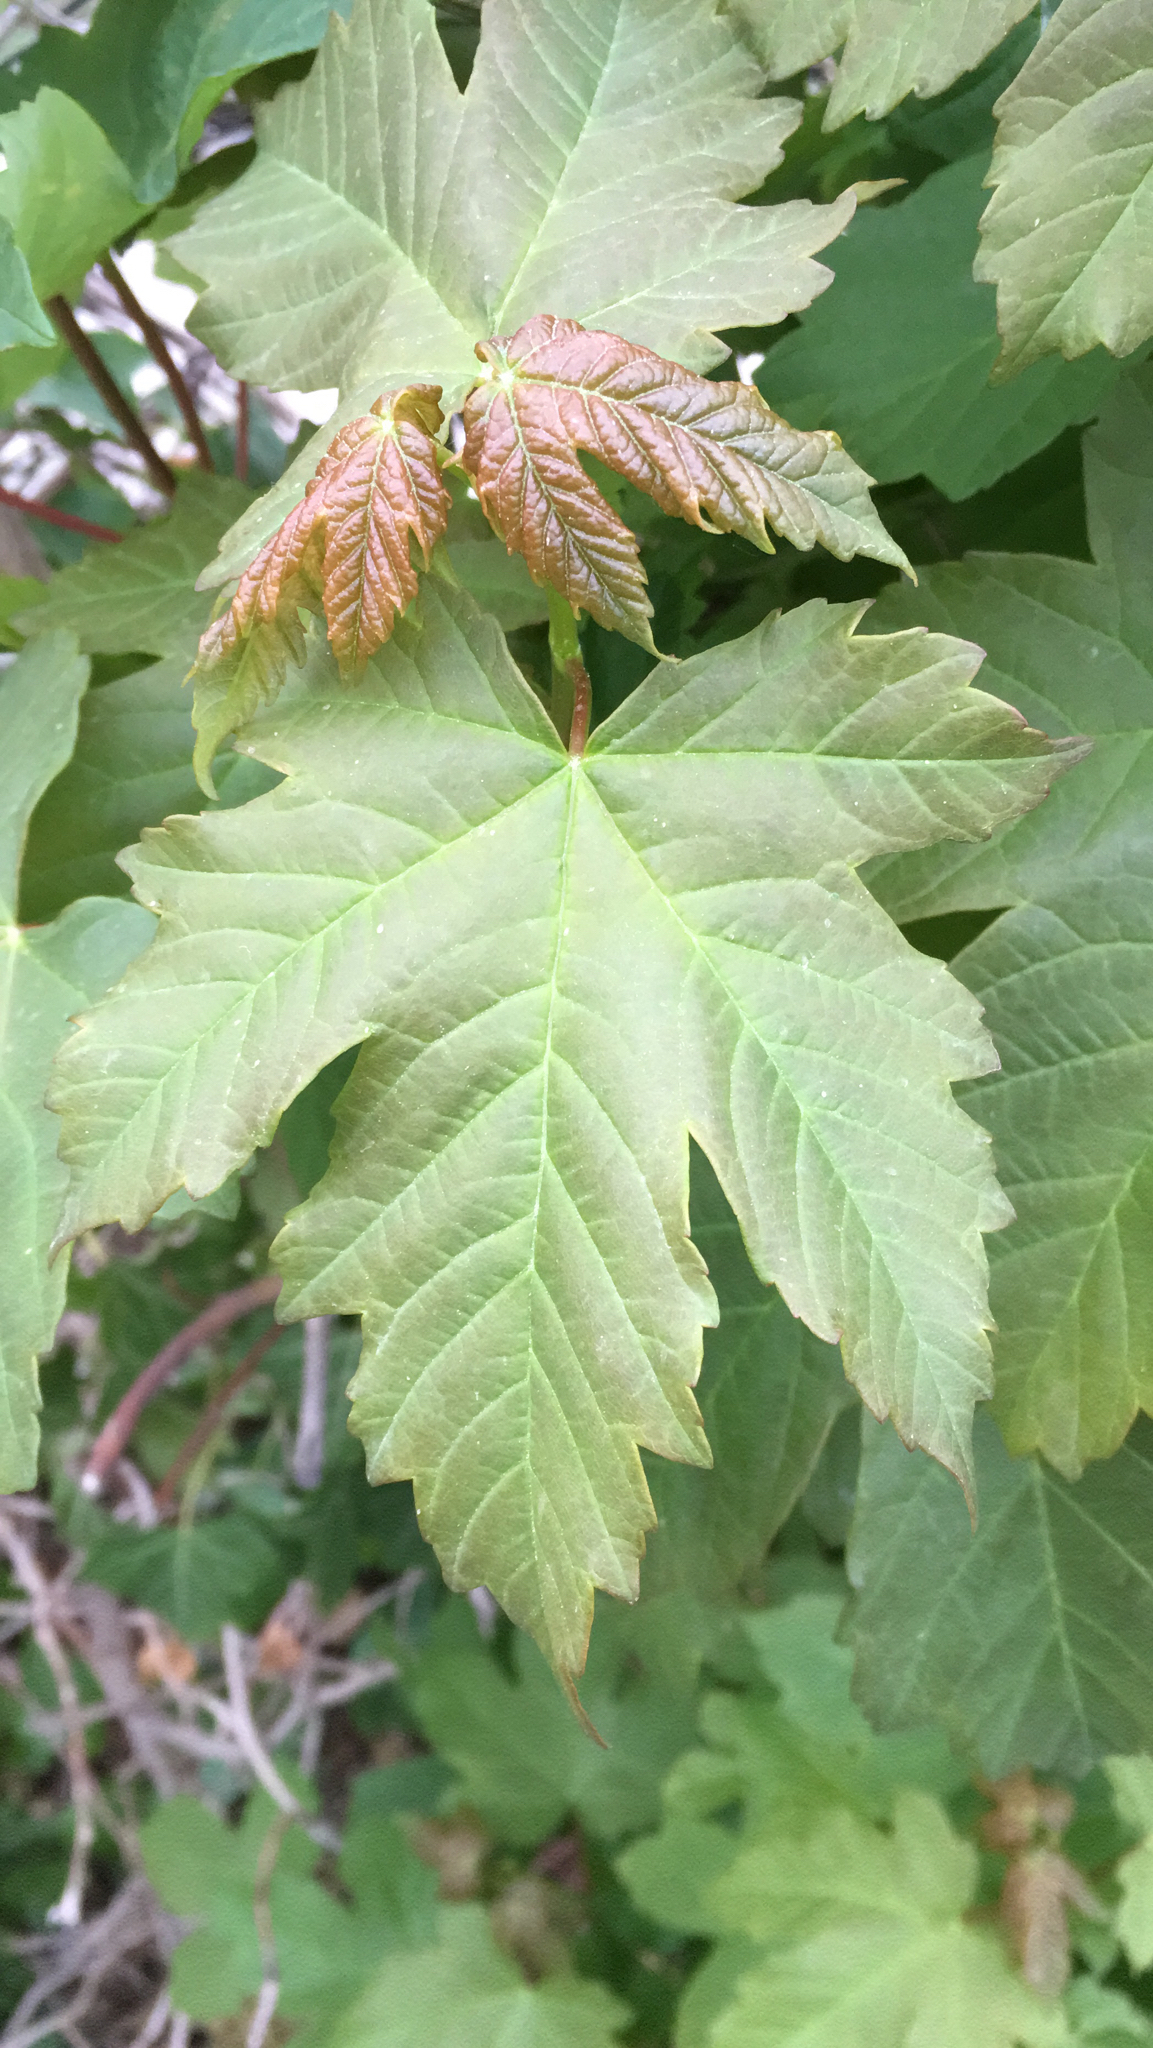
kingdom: Plantae
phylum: Tracheophyta
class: Magnoliopsida
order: Sapindales
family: Sapindaceae
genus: Acer
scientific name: Acer pseudoplatanus
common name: Sycamore
